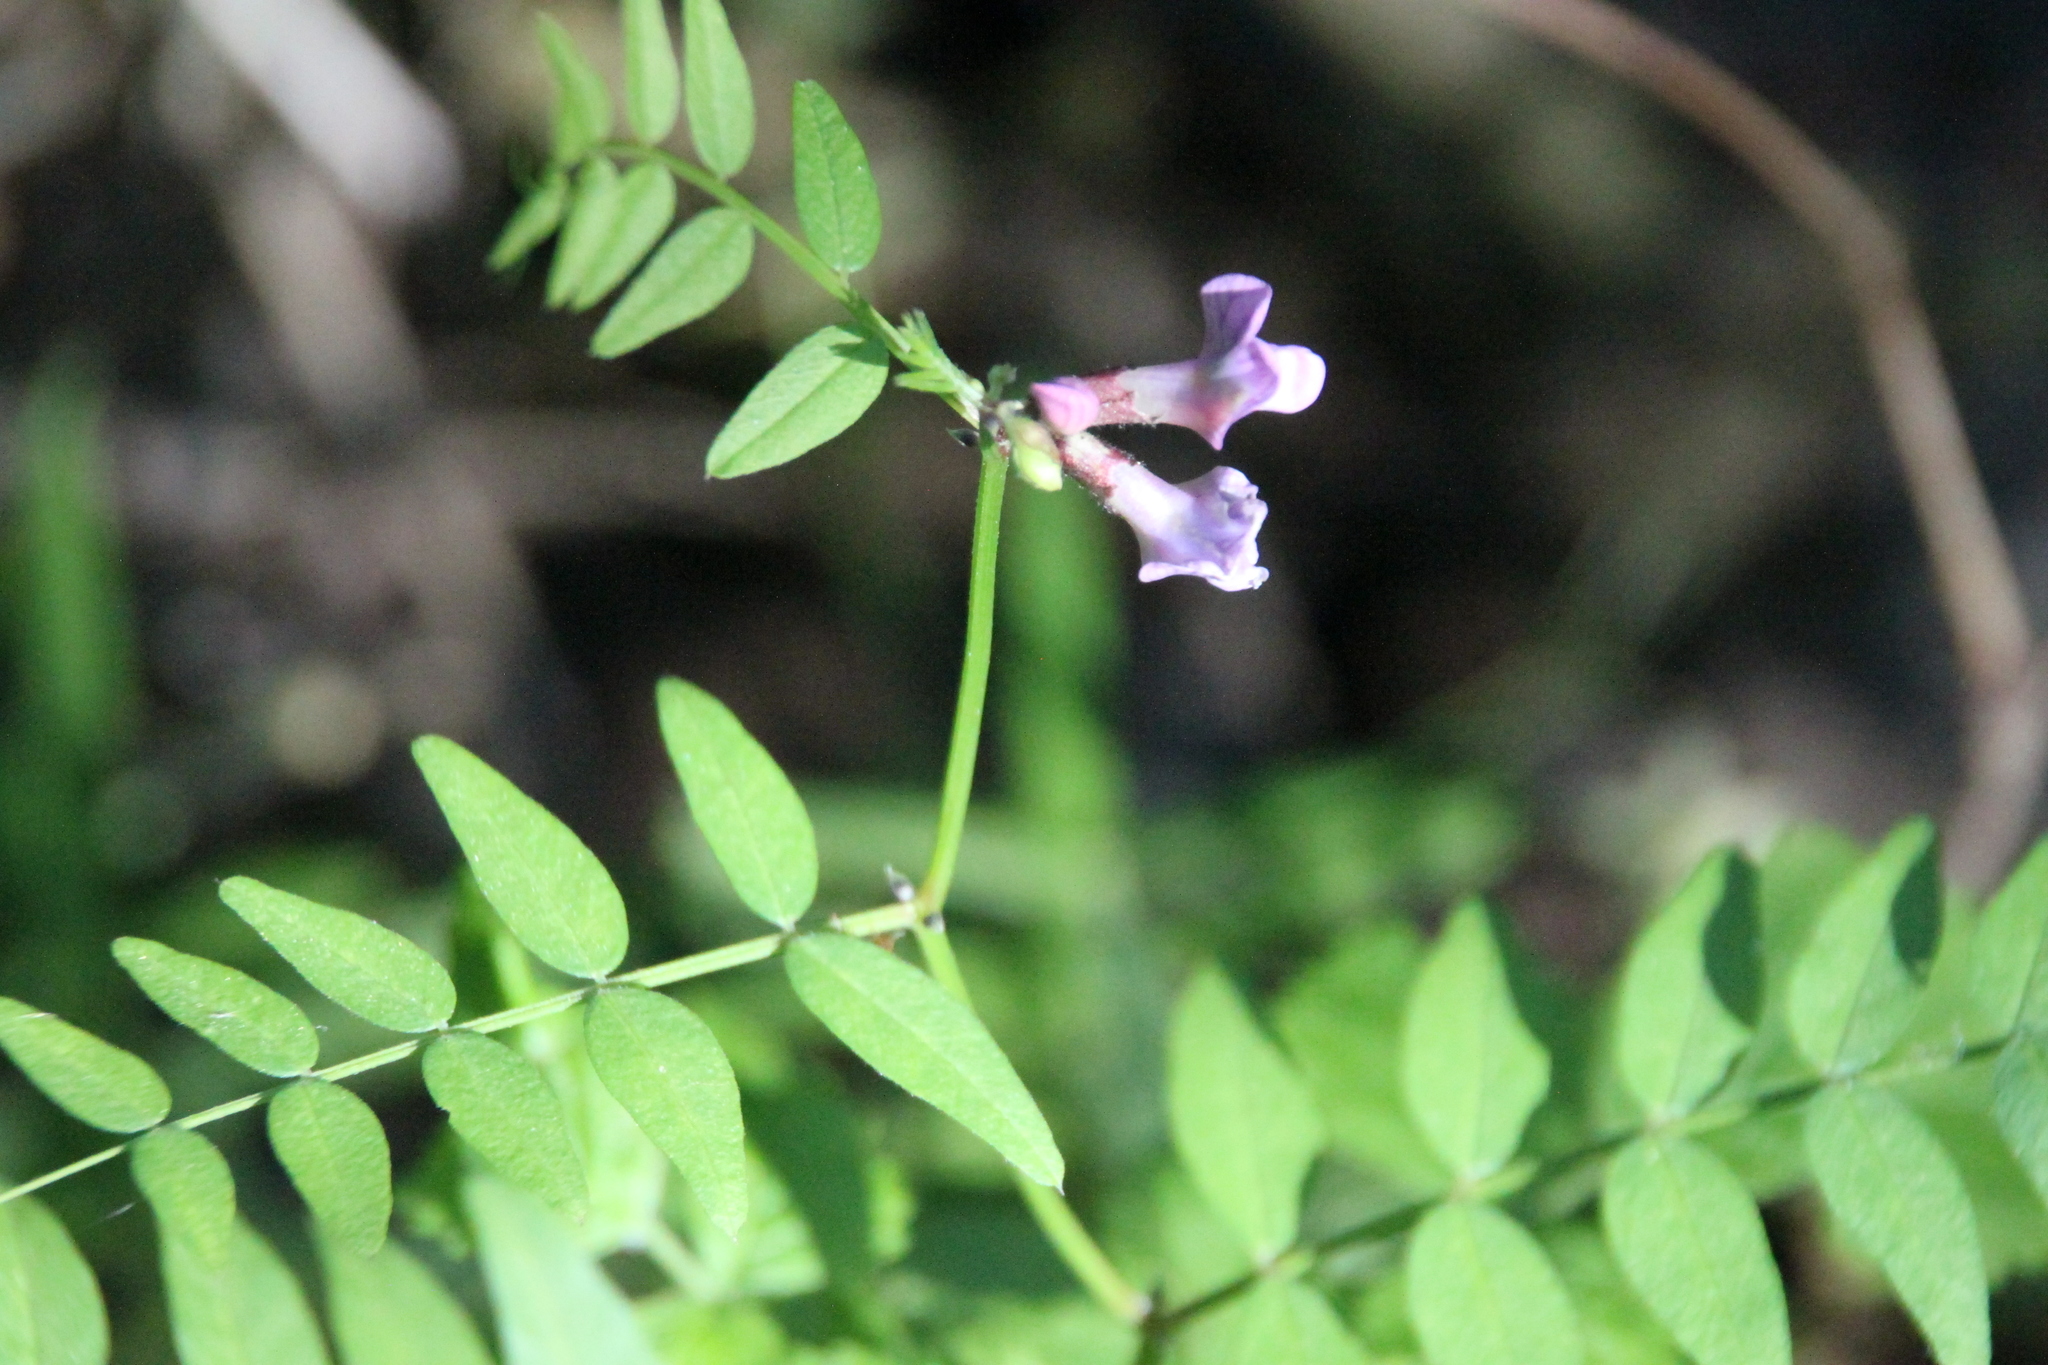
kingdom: Plantae
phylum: Tracheophyta
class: Magnoliopsida
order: Fabales
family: Fabaceae
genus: Vicia
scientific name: Vicia sepium
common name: Bush vetch
